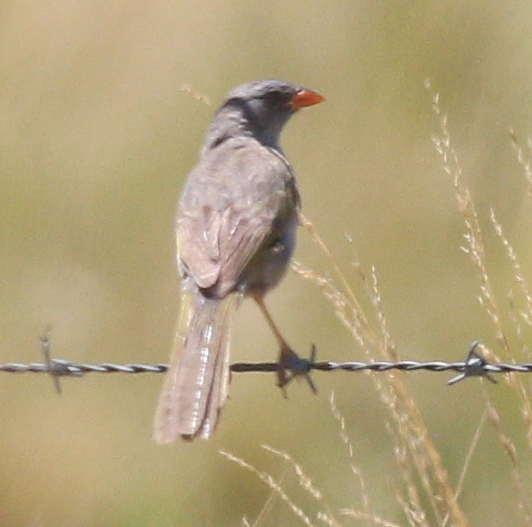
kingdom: Animalia
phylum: Chordata
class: Aves
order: Passeriformes
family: Thraupidae
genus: Embernagra
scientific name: Embernagra platensis
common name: Pampa finch
